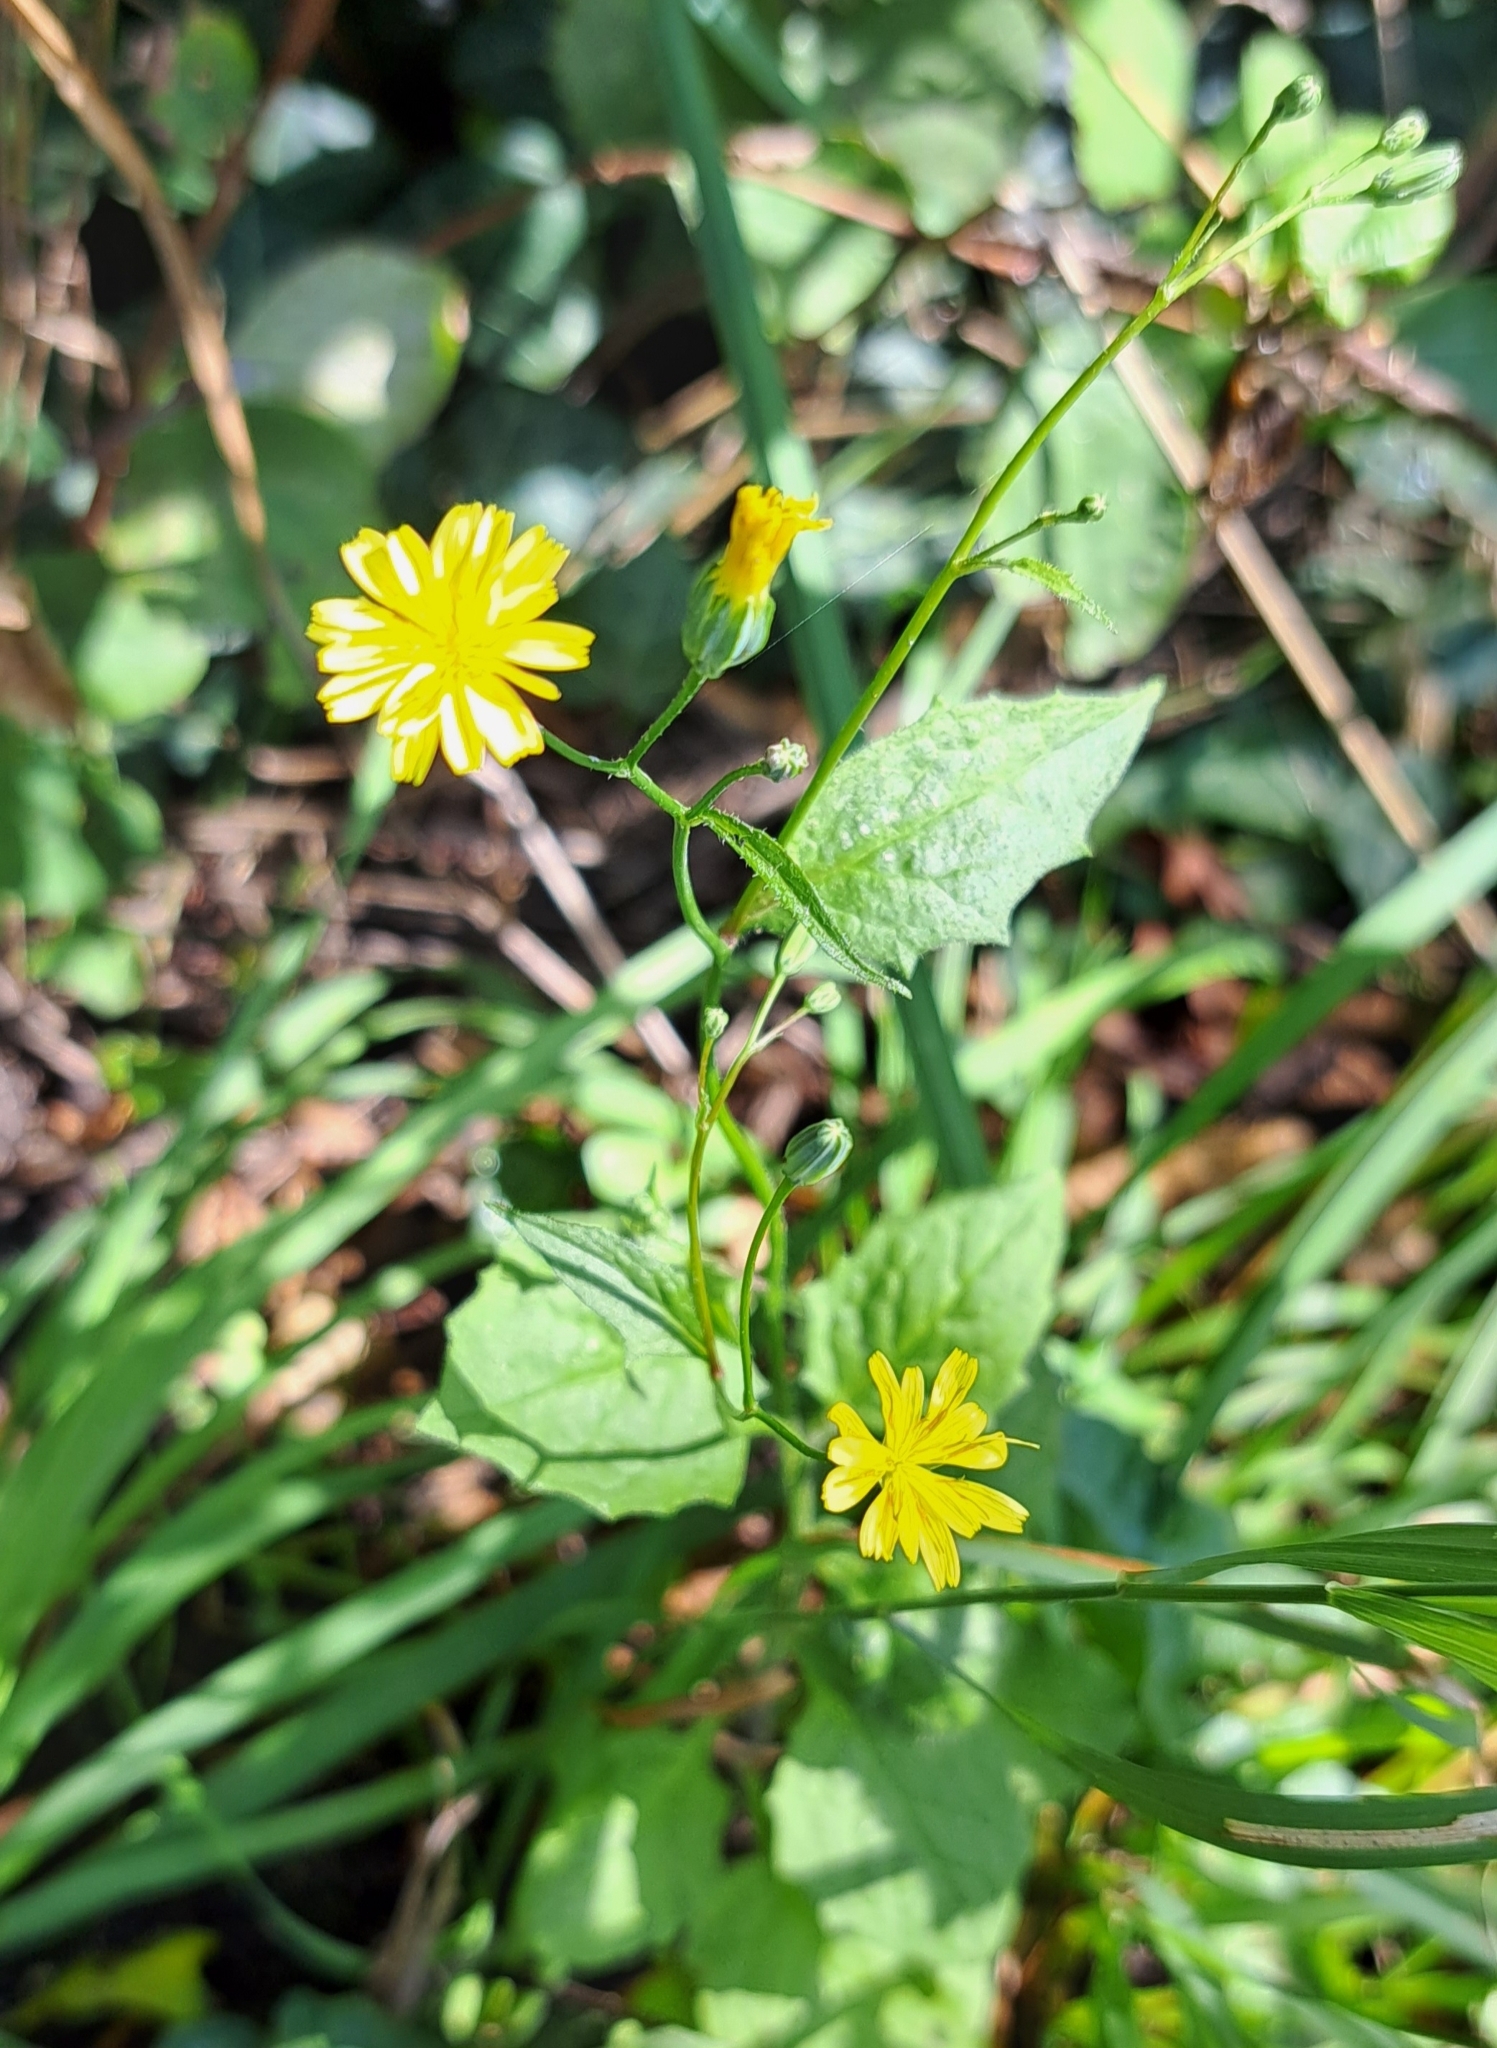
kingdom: Plantae
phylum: Tracheophyta
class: Magnoliopsida
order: Asterales
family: Asteraceae
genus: Lapsana
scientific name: Lapsana communis
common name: Nipplewort
